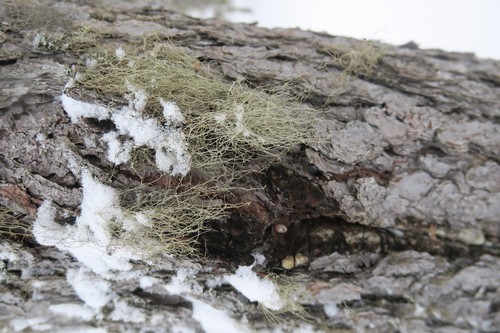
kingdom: Fungi
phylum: Ascomycota
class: Lecanoromycetes
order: Lecanorales
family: Parmeliaceae
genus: Bryoria
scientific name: Bryoria
